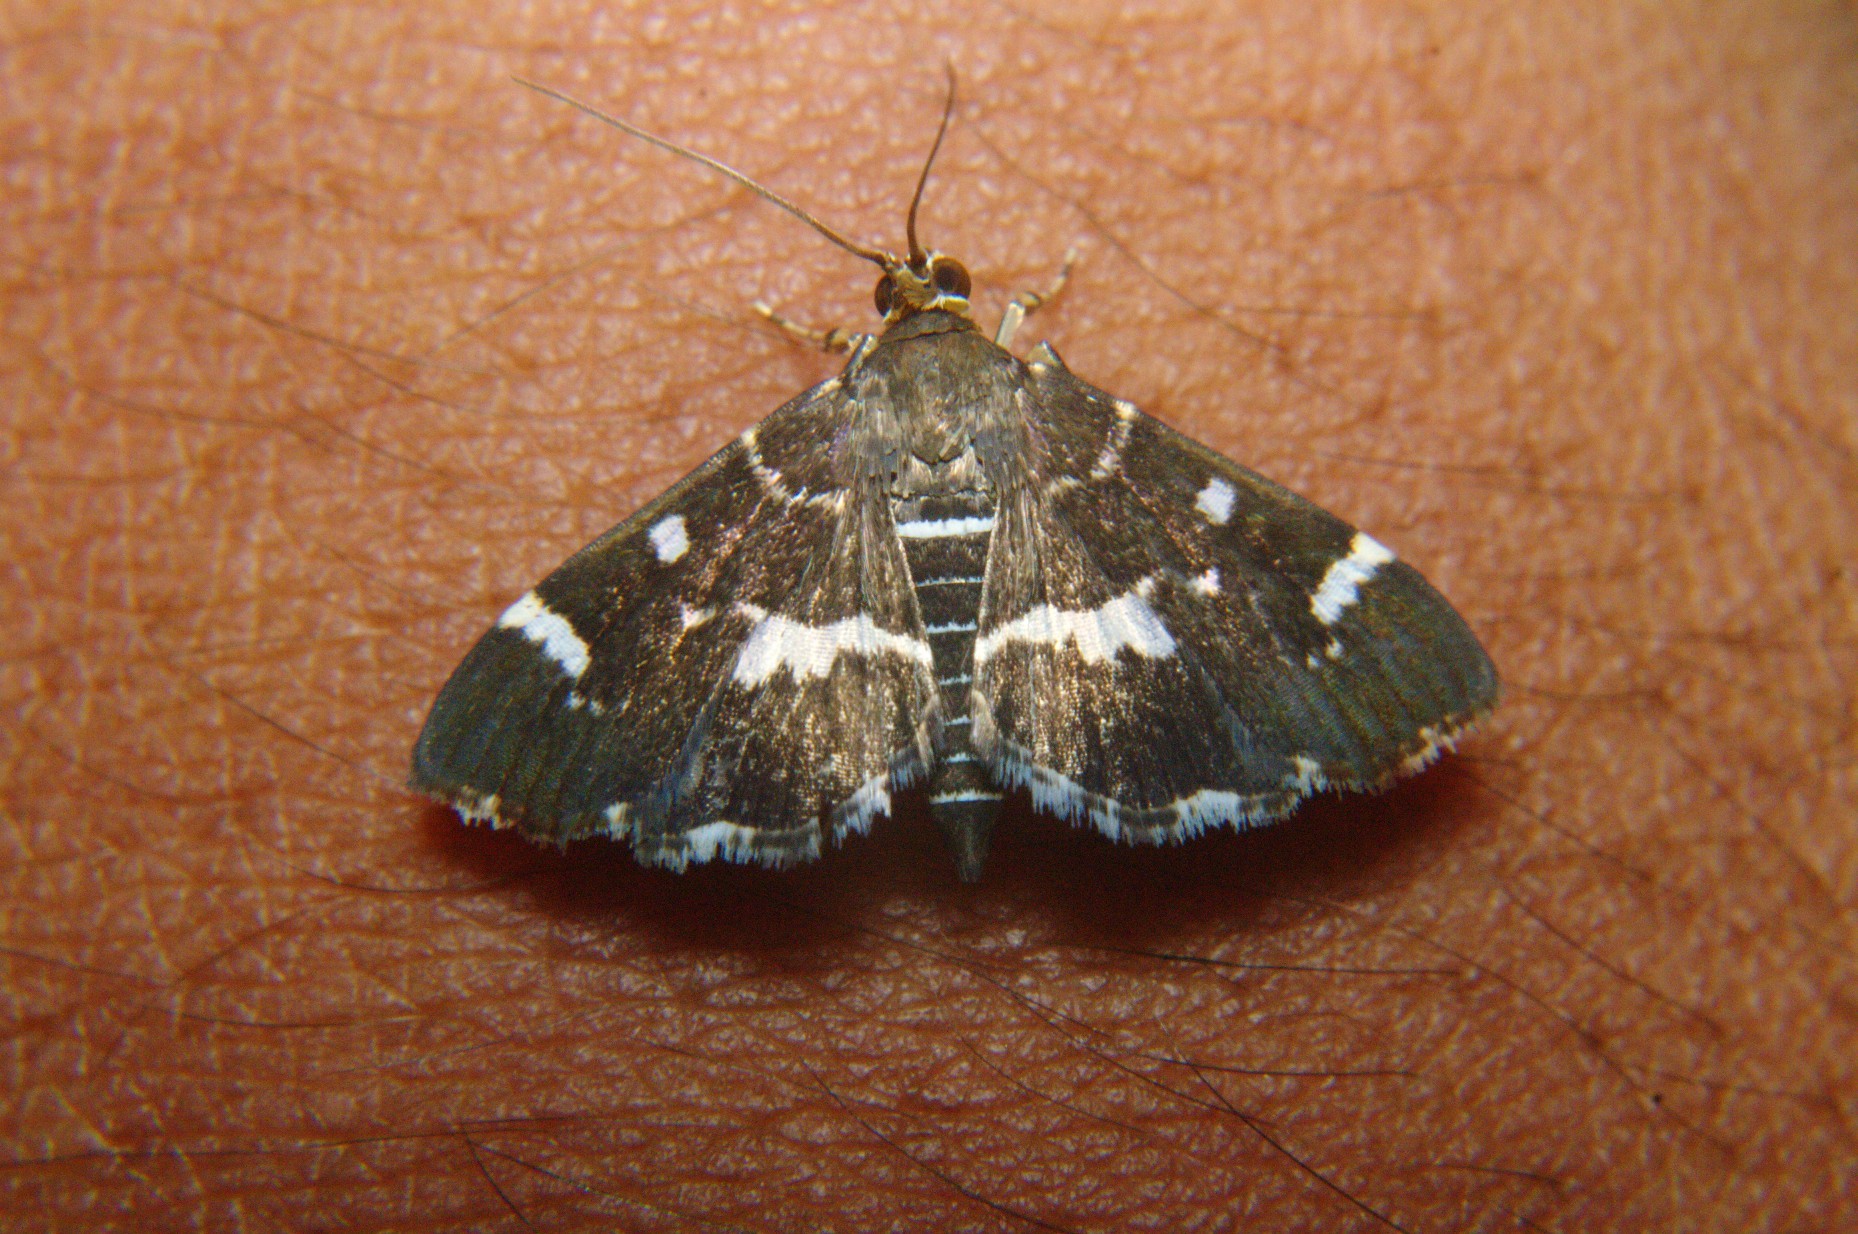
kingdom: Animalia
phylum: Arthropoda
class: Insecta
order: Lepidoptera
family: Crambidae
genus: Hymenia
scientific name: Hymenia perspectalis
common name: Spotted beet webworm
